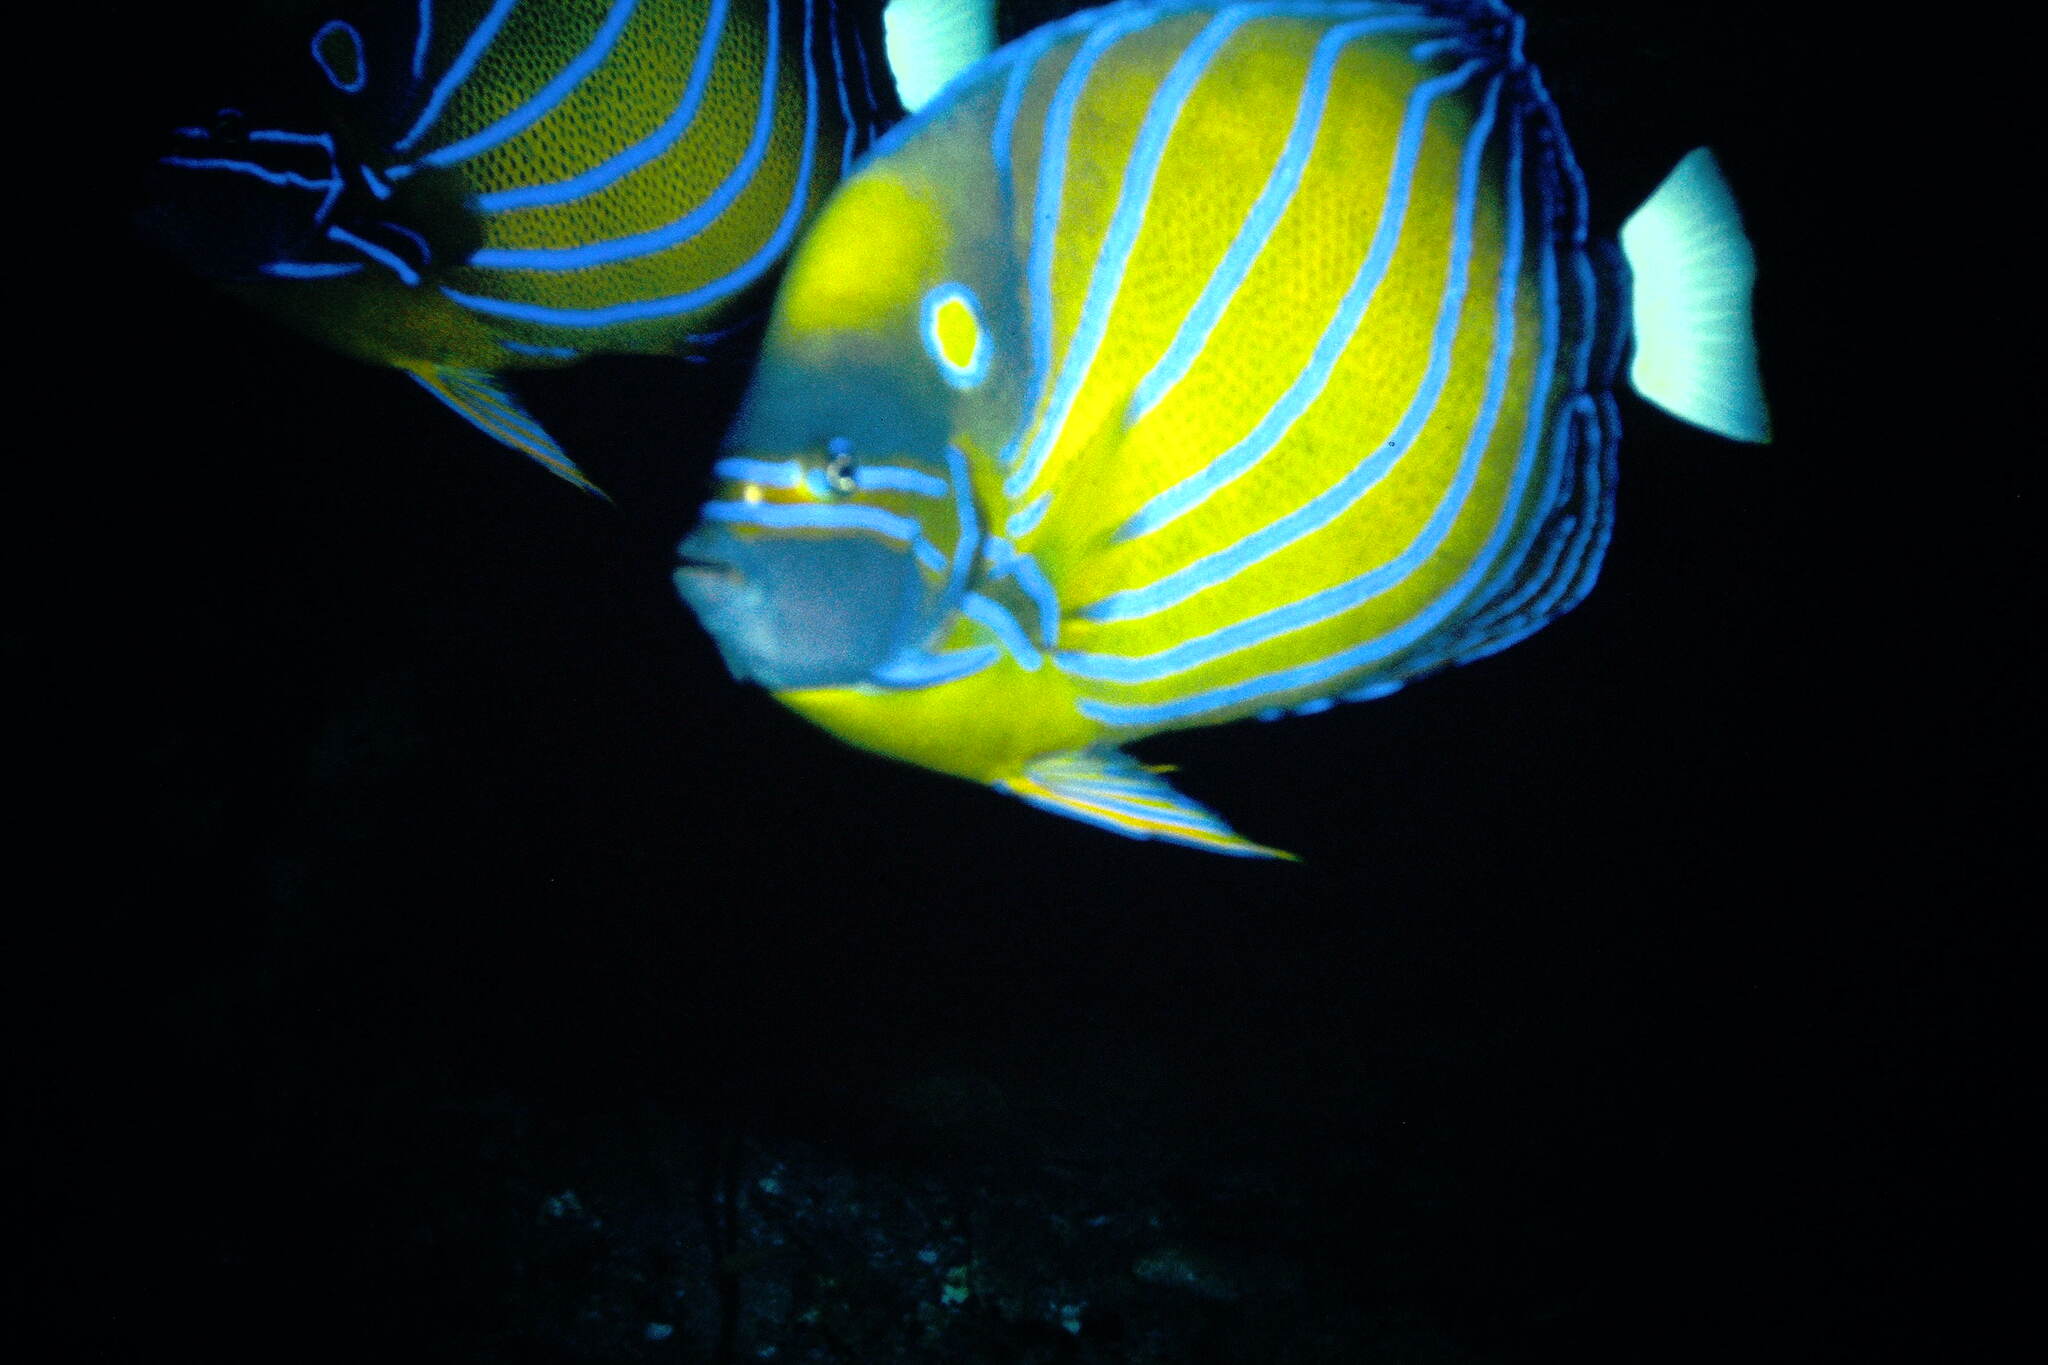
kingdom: Animalia
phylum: Chordata
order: Perciformes
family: Pomacanthidae
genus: Pomacanthus
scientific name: Pomacanthus annularis
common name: Bluering angelfish
